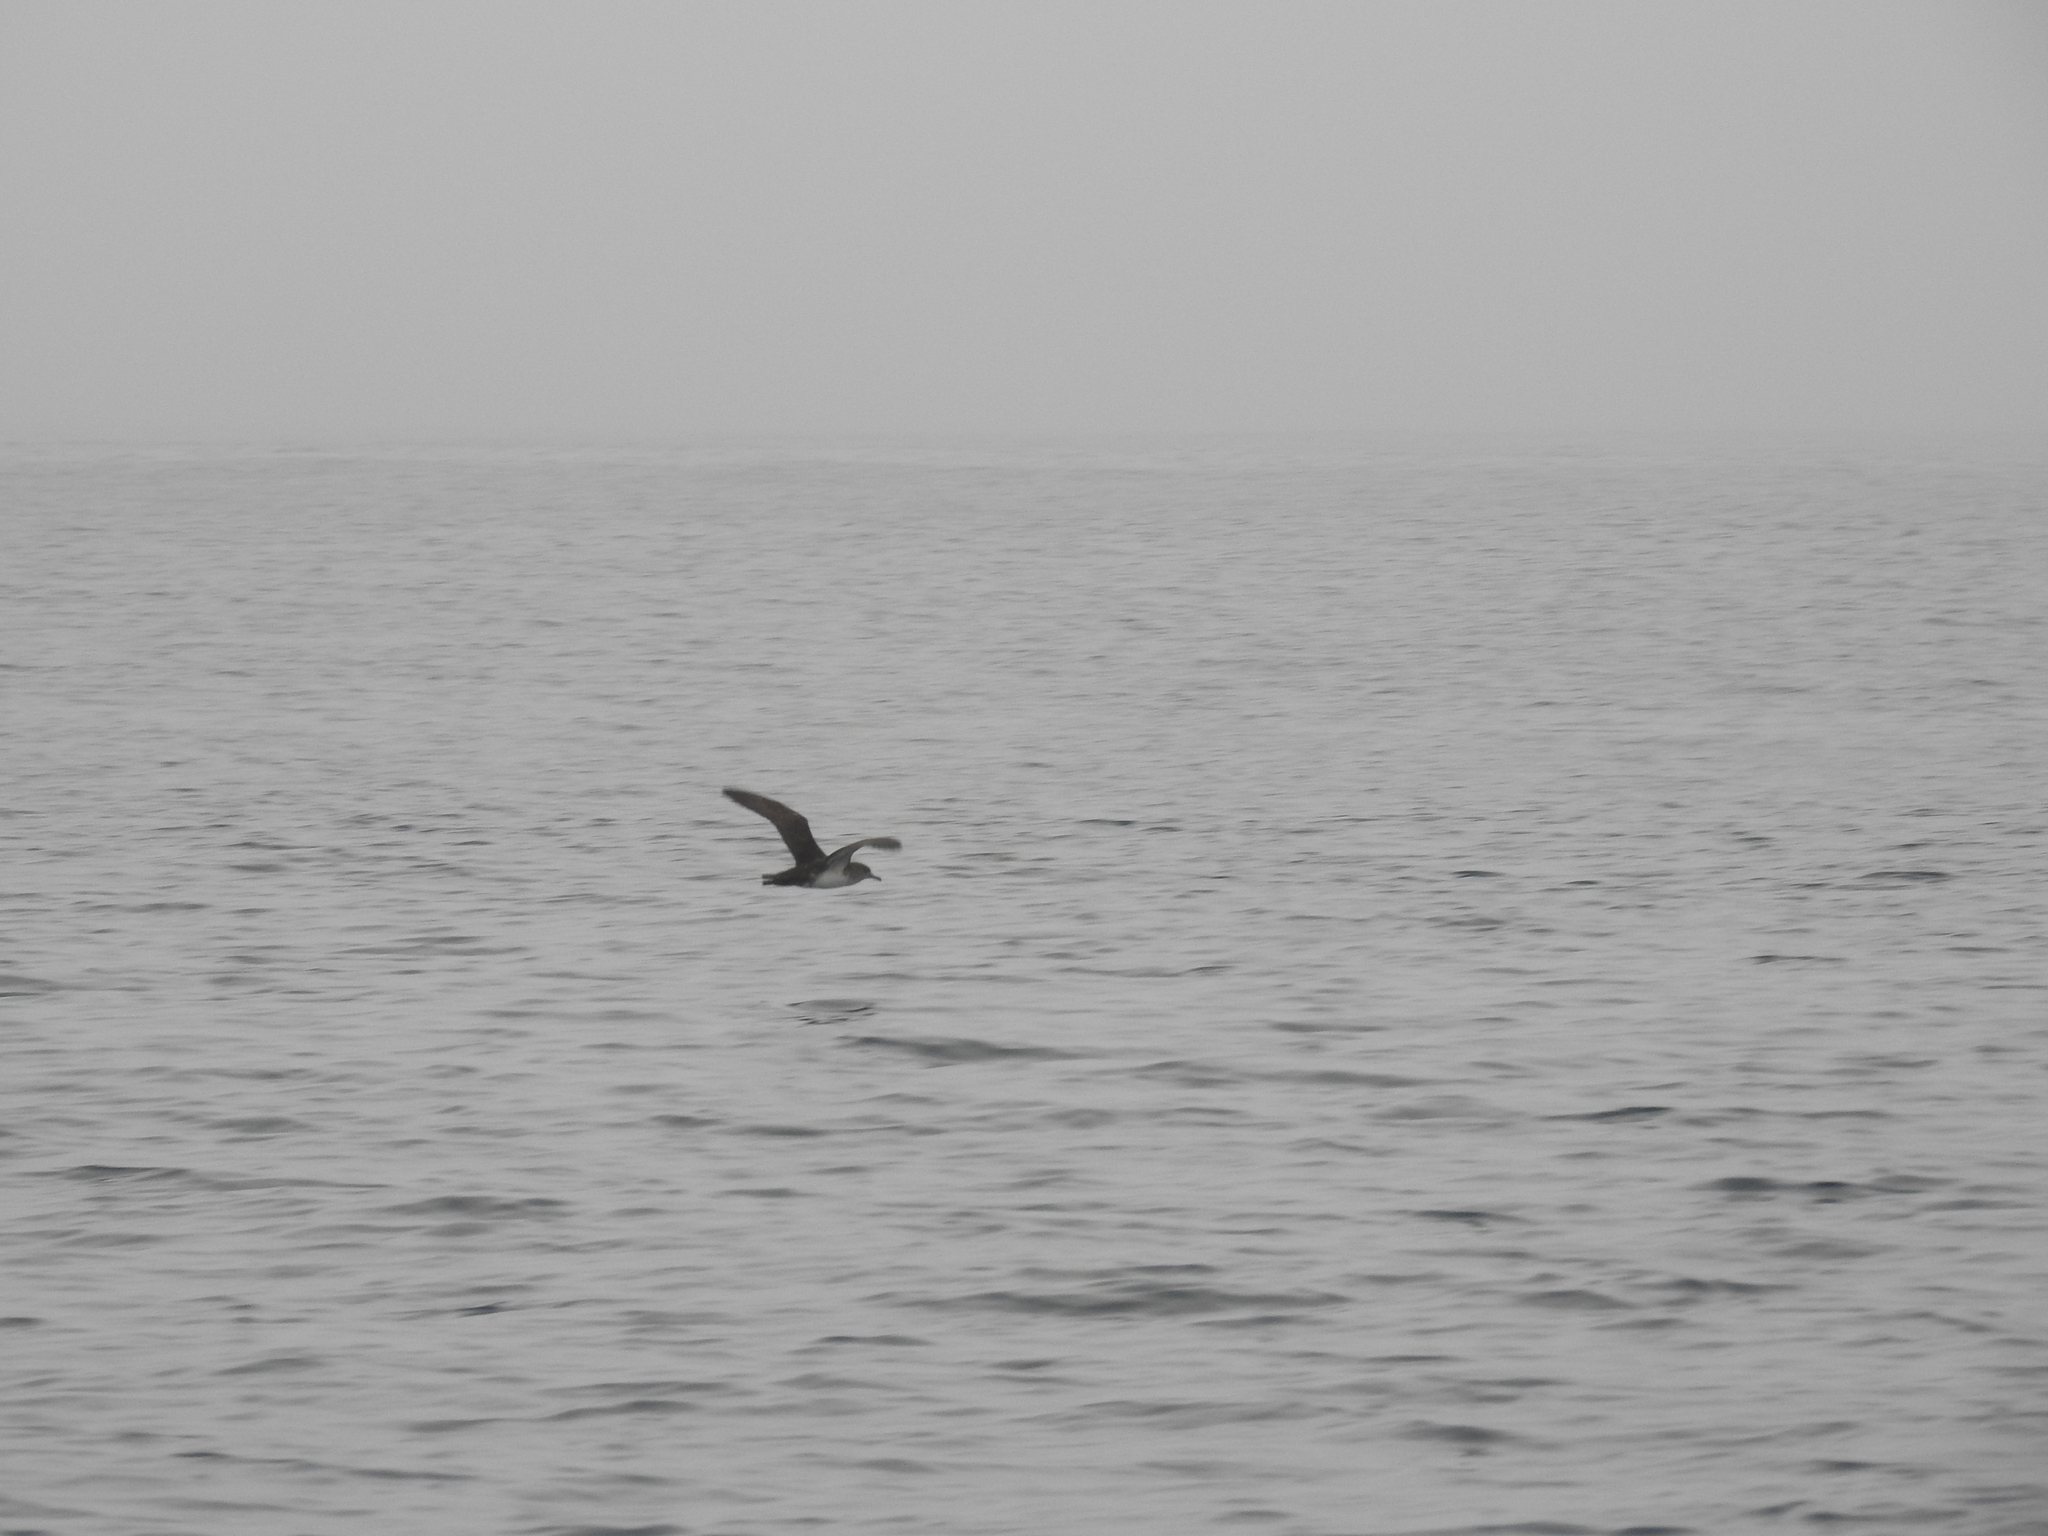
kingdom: Animalia
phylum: Chordata
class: Aves
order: Procellariiformes
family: Procellariidae
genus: Puffinus
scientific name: Puffinus opisthomelas
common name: Black-vented shearwater
